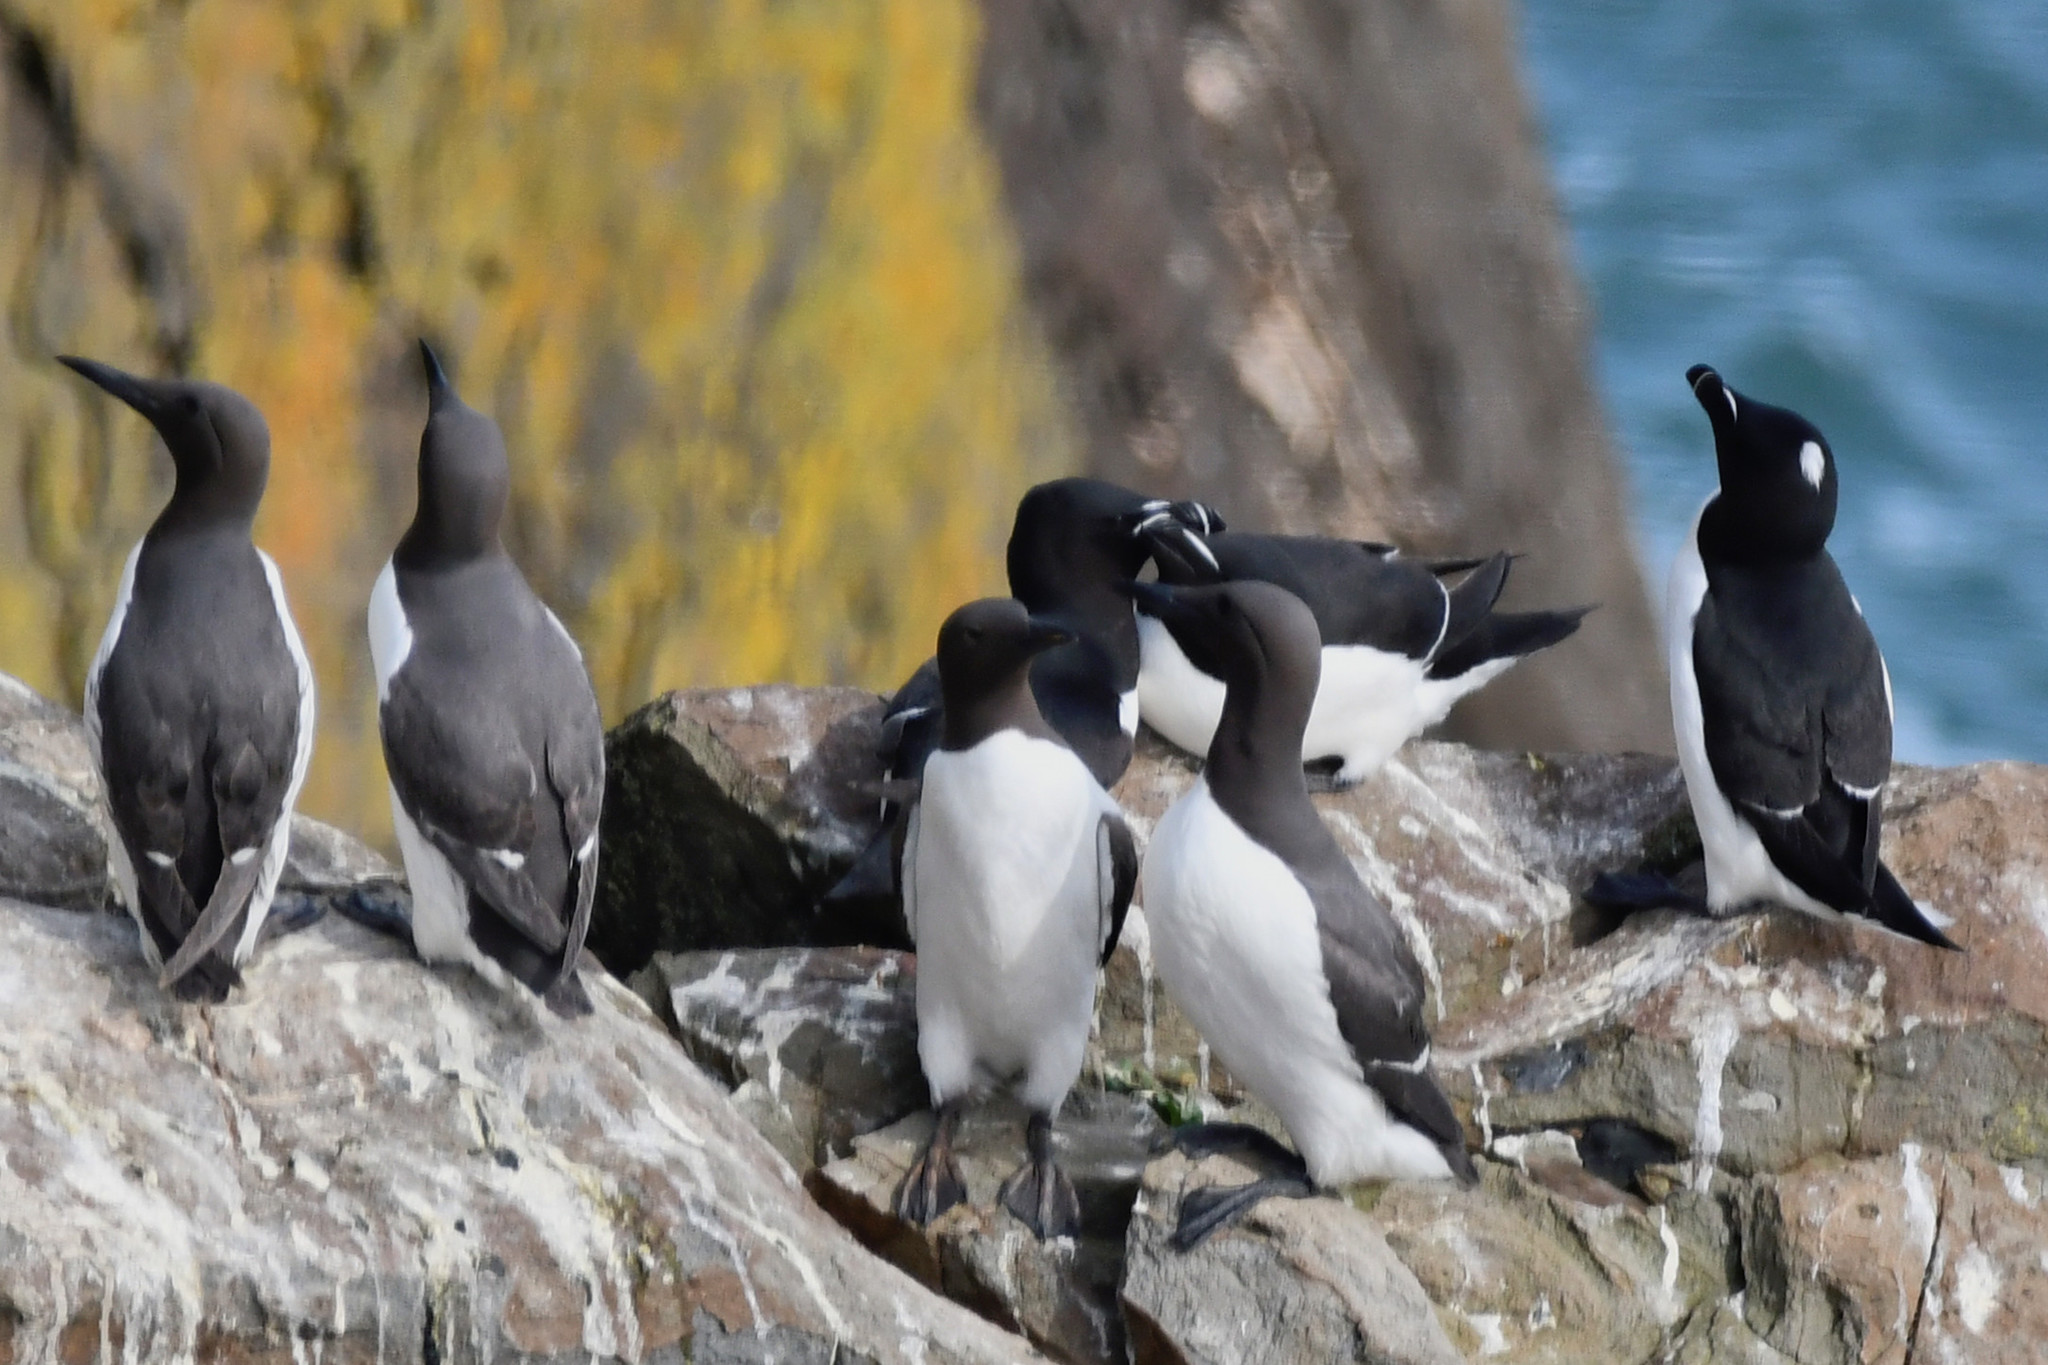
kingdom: Animalia
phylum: Chordata
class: Aves
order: Charadriiformes
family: Alcidae
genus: Uria
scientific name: Uria aalge
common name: Common murre
